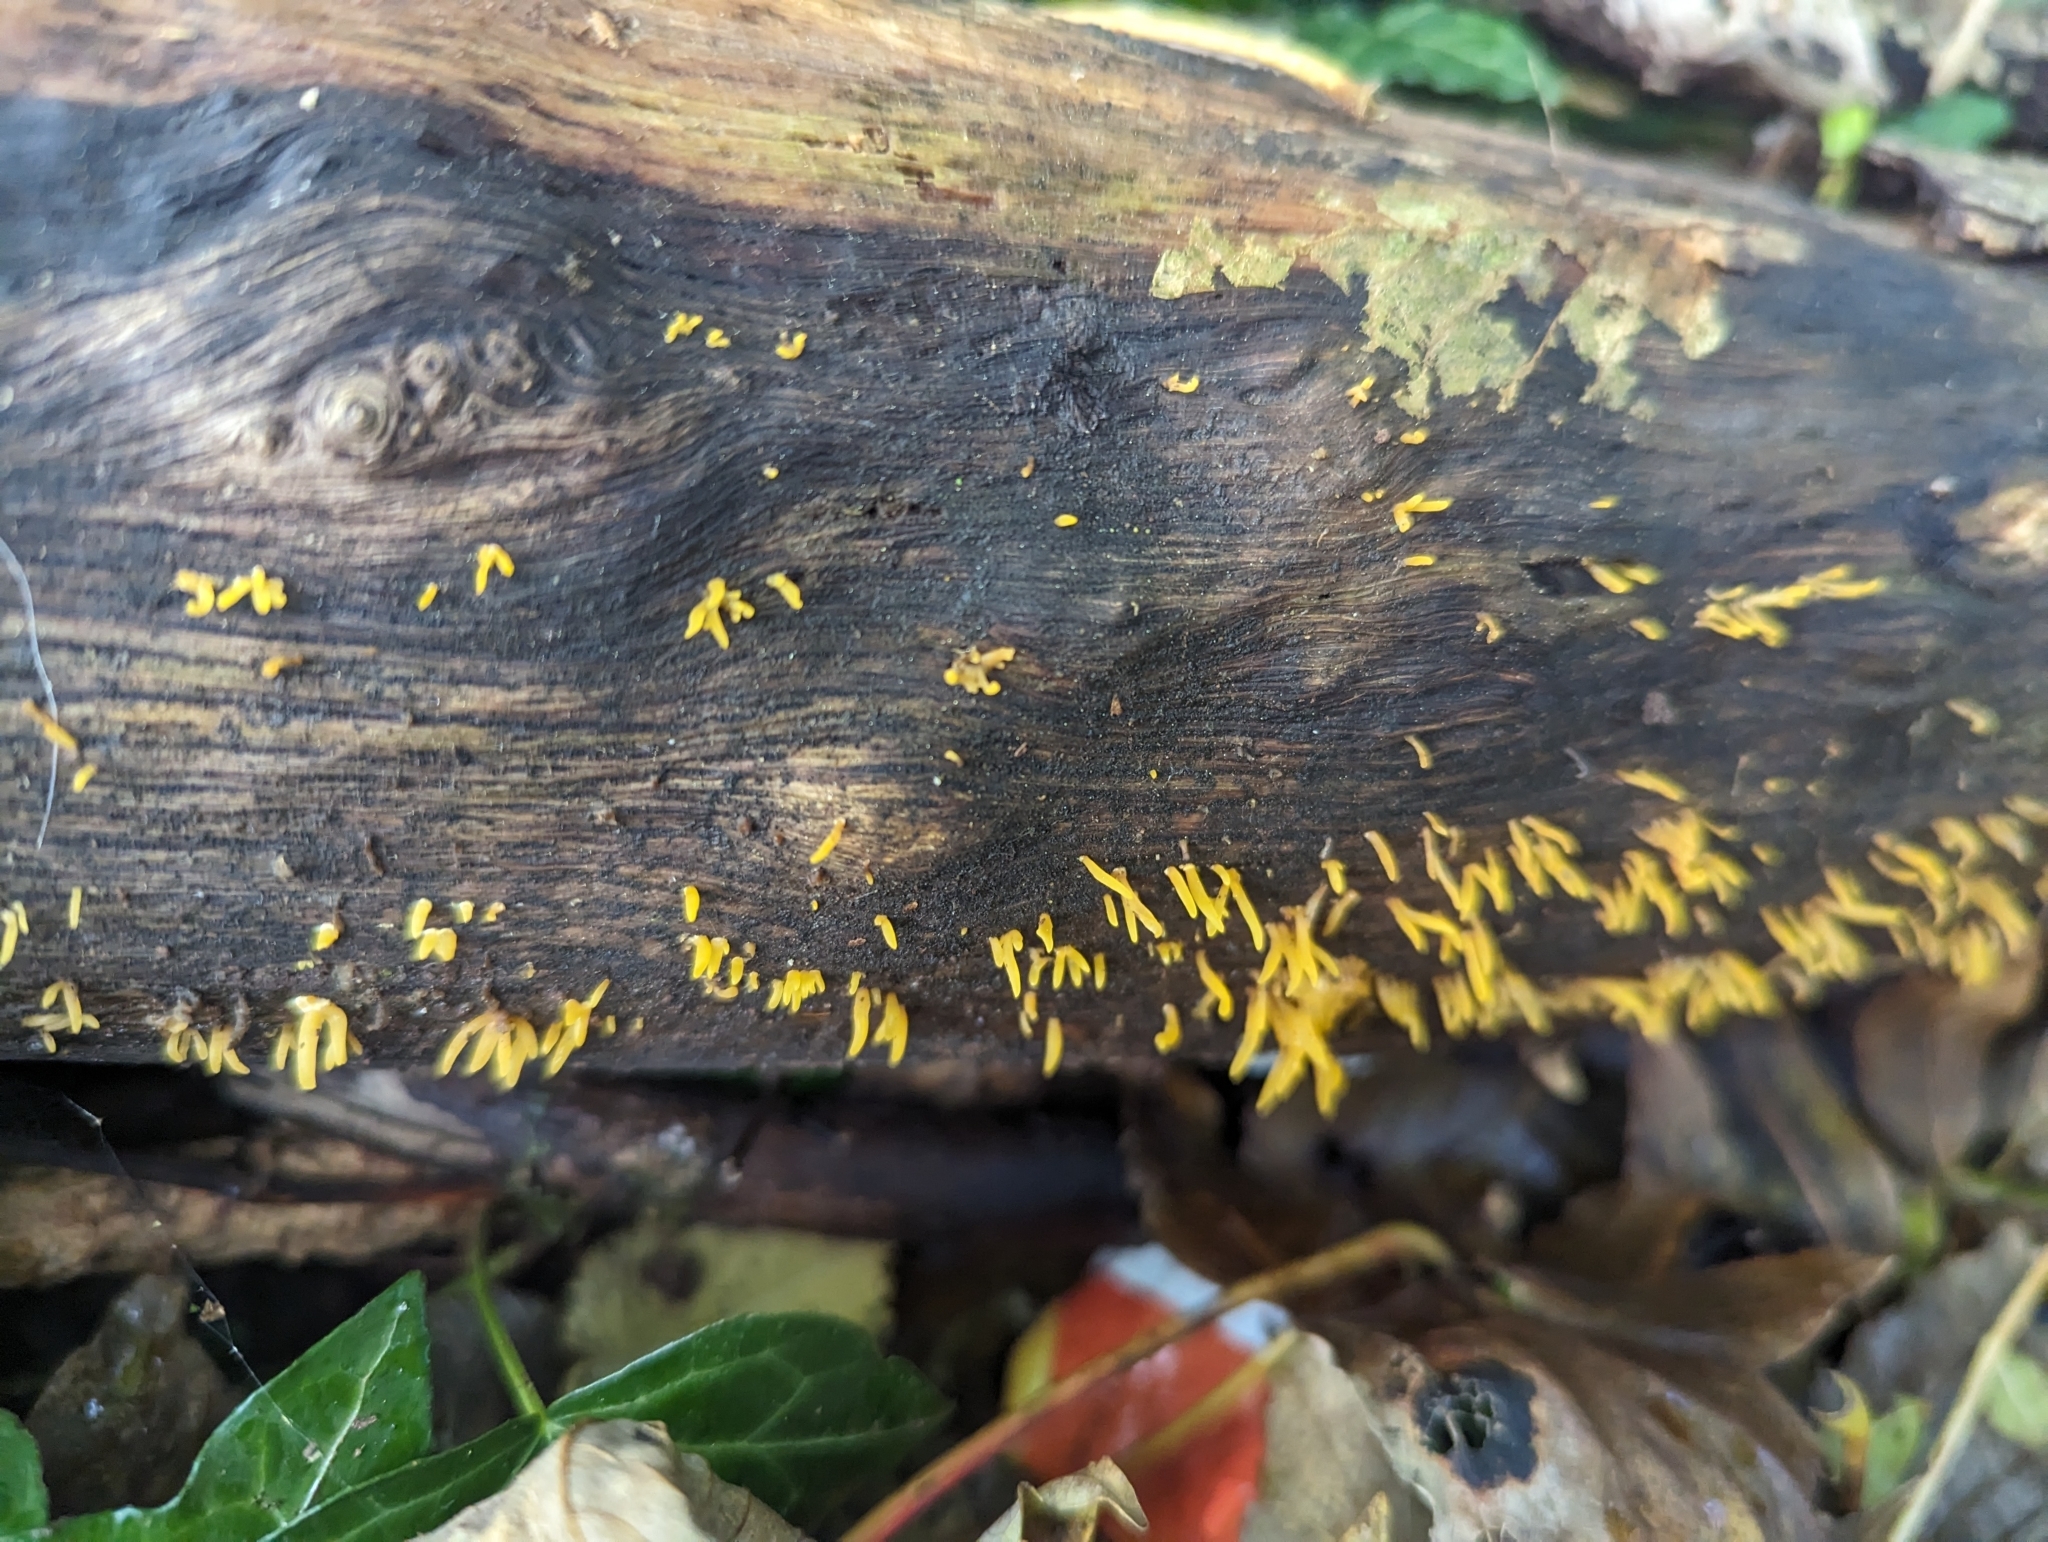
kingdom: Fungi
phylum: Basidiomycota
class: Dacrymycetes
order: Dacrymycetales
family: Dacrymycetaceae
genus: Calocera
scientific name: Calocera cornea
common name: Small stagshorn
